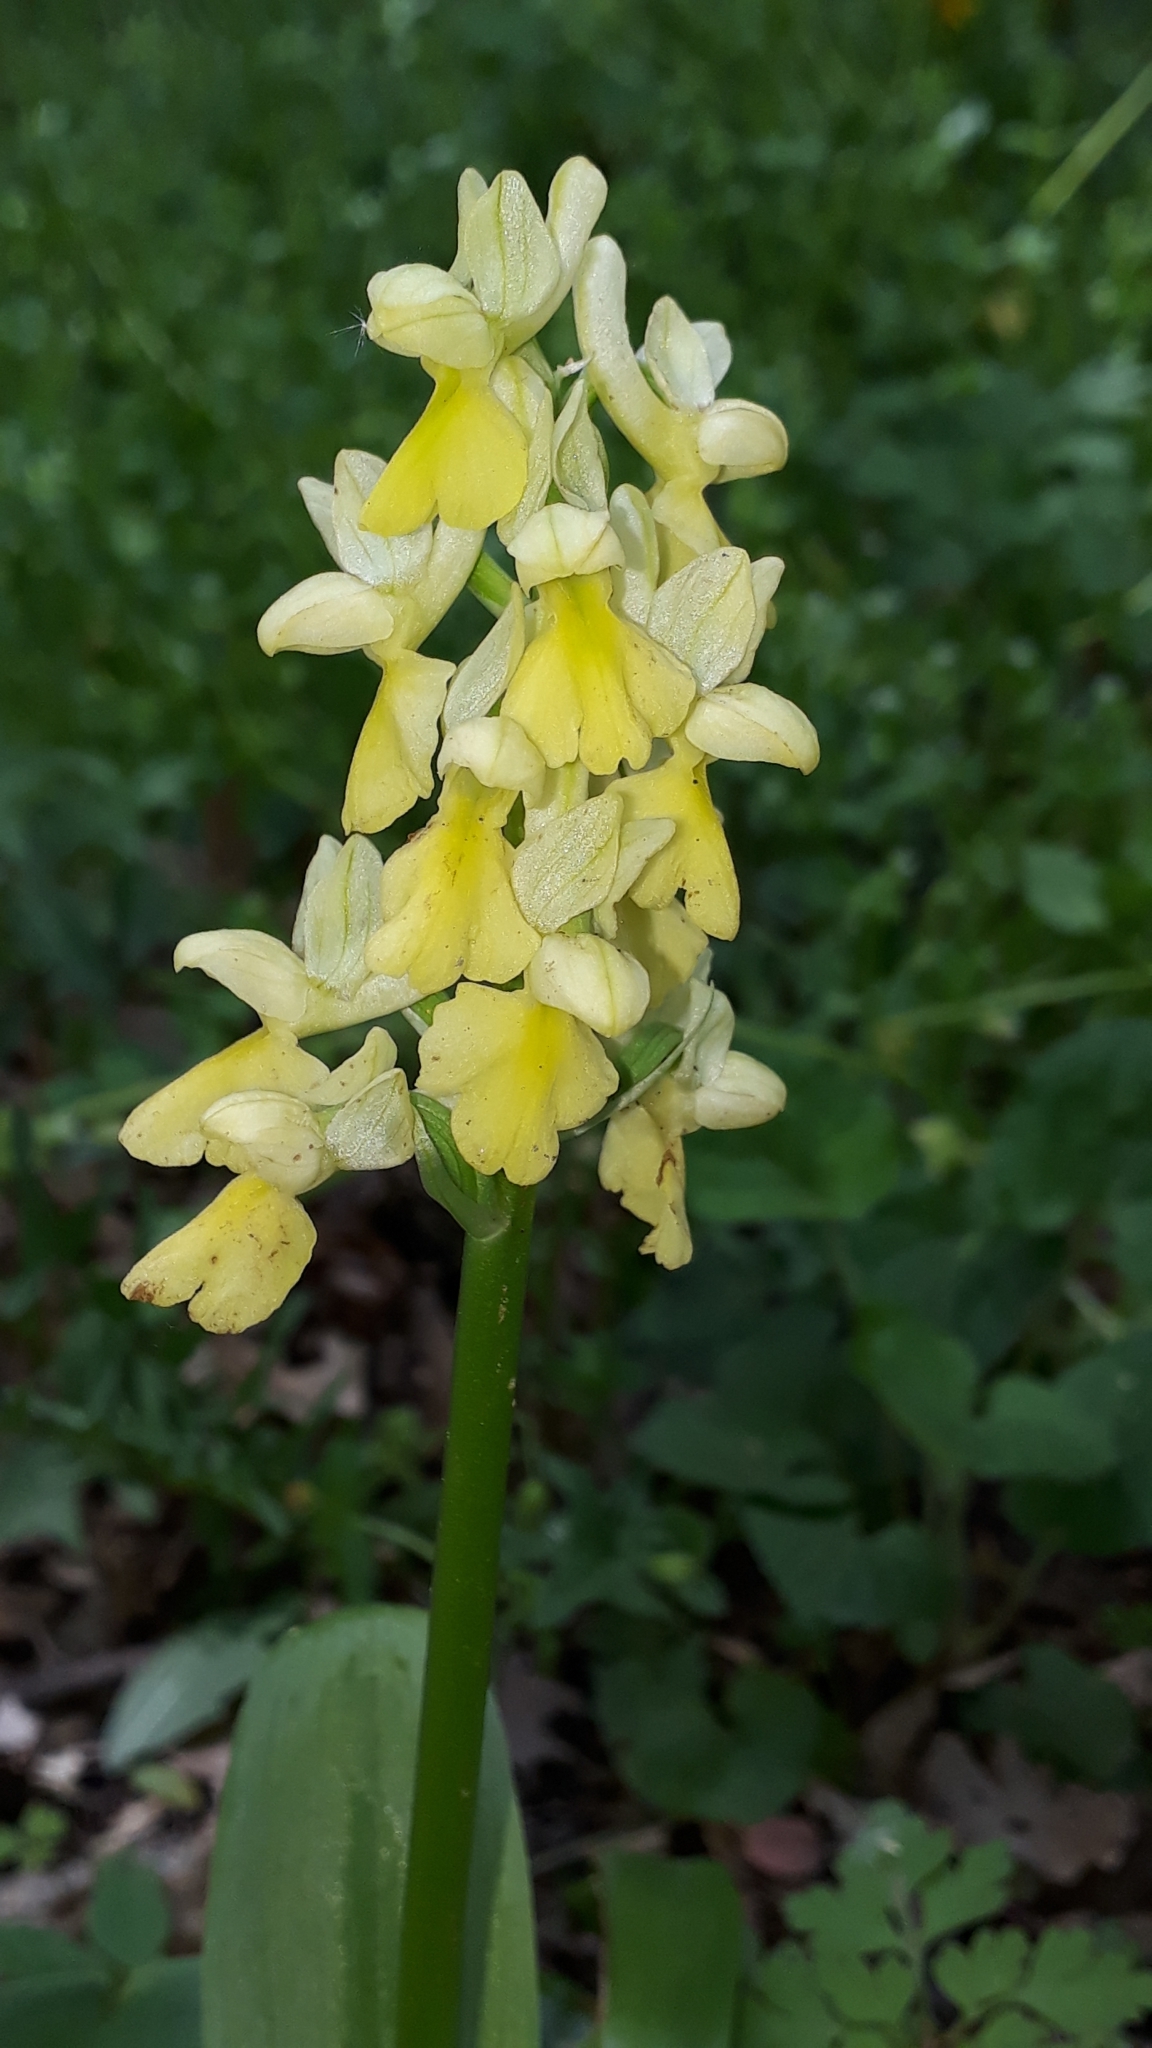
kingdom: Plantae
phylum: Tracheophyta
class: Liliopsida
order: Asparagales
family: Orchidaceae
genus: Orchis
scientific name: Orchis pallens
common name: Pale-flowered orchid
